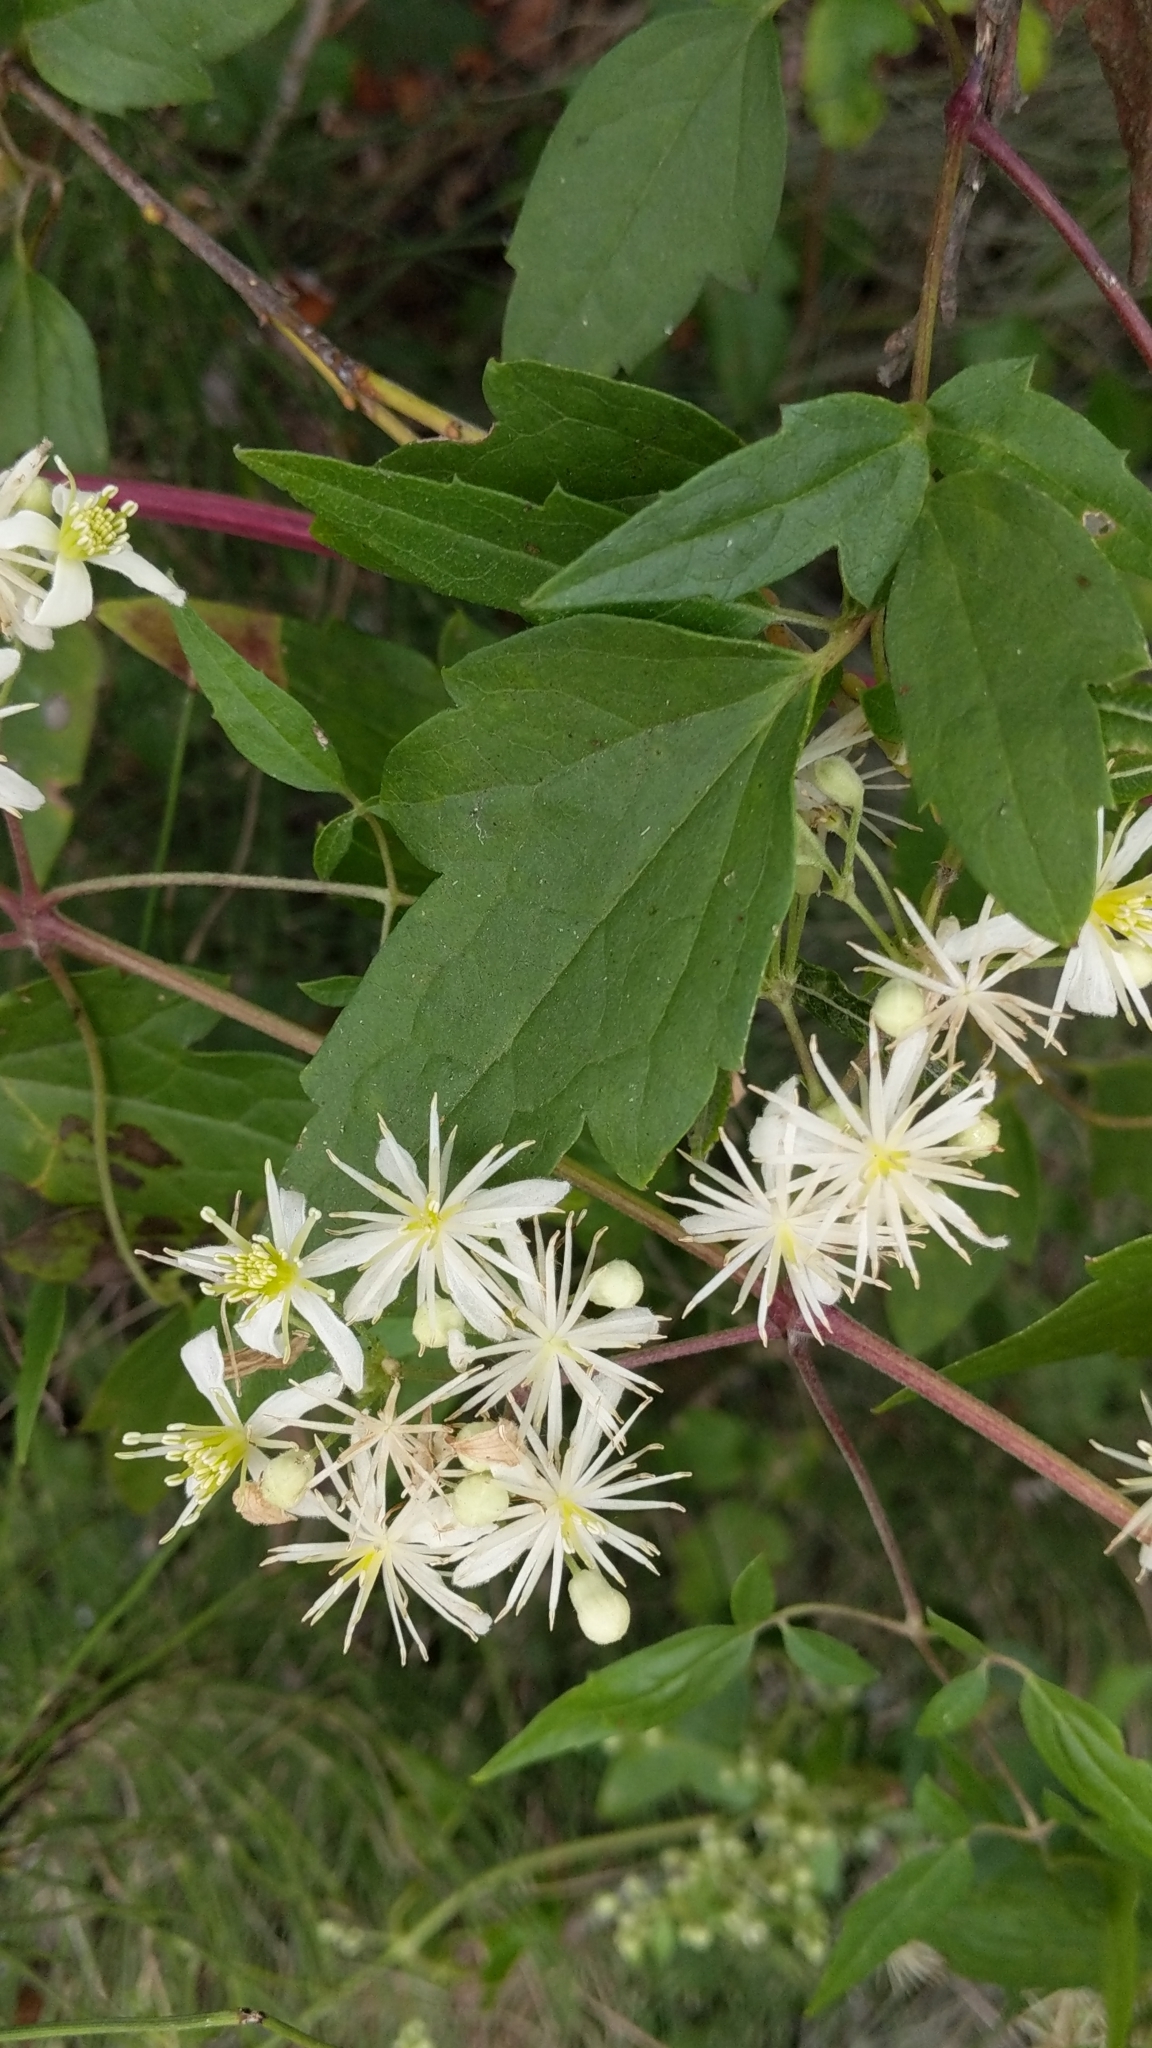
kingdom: Plantae
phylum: Tracheophyta
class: Magnoliopsida
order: Ranunculales
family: Ranunculaceae
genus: Clematis
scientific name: Clematis ligusticifolia
